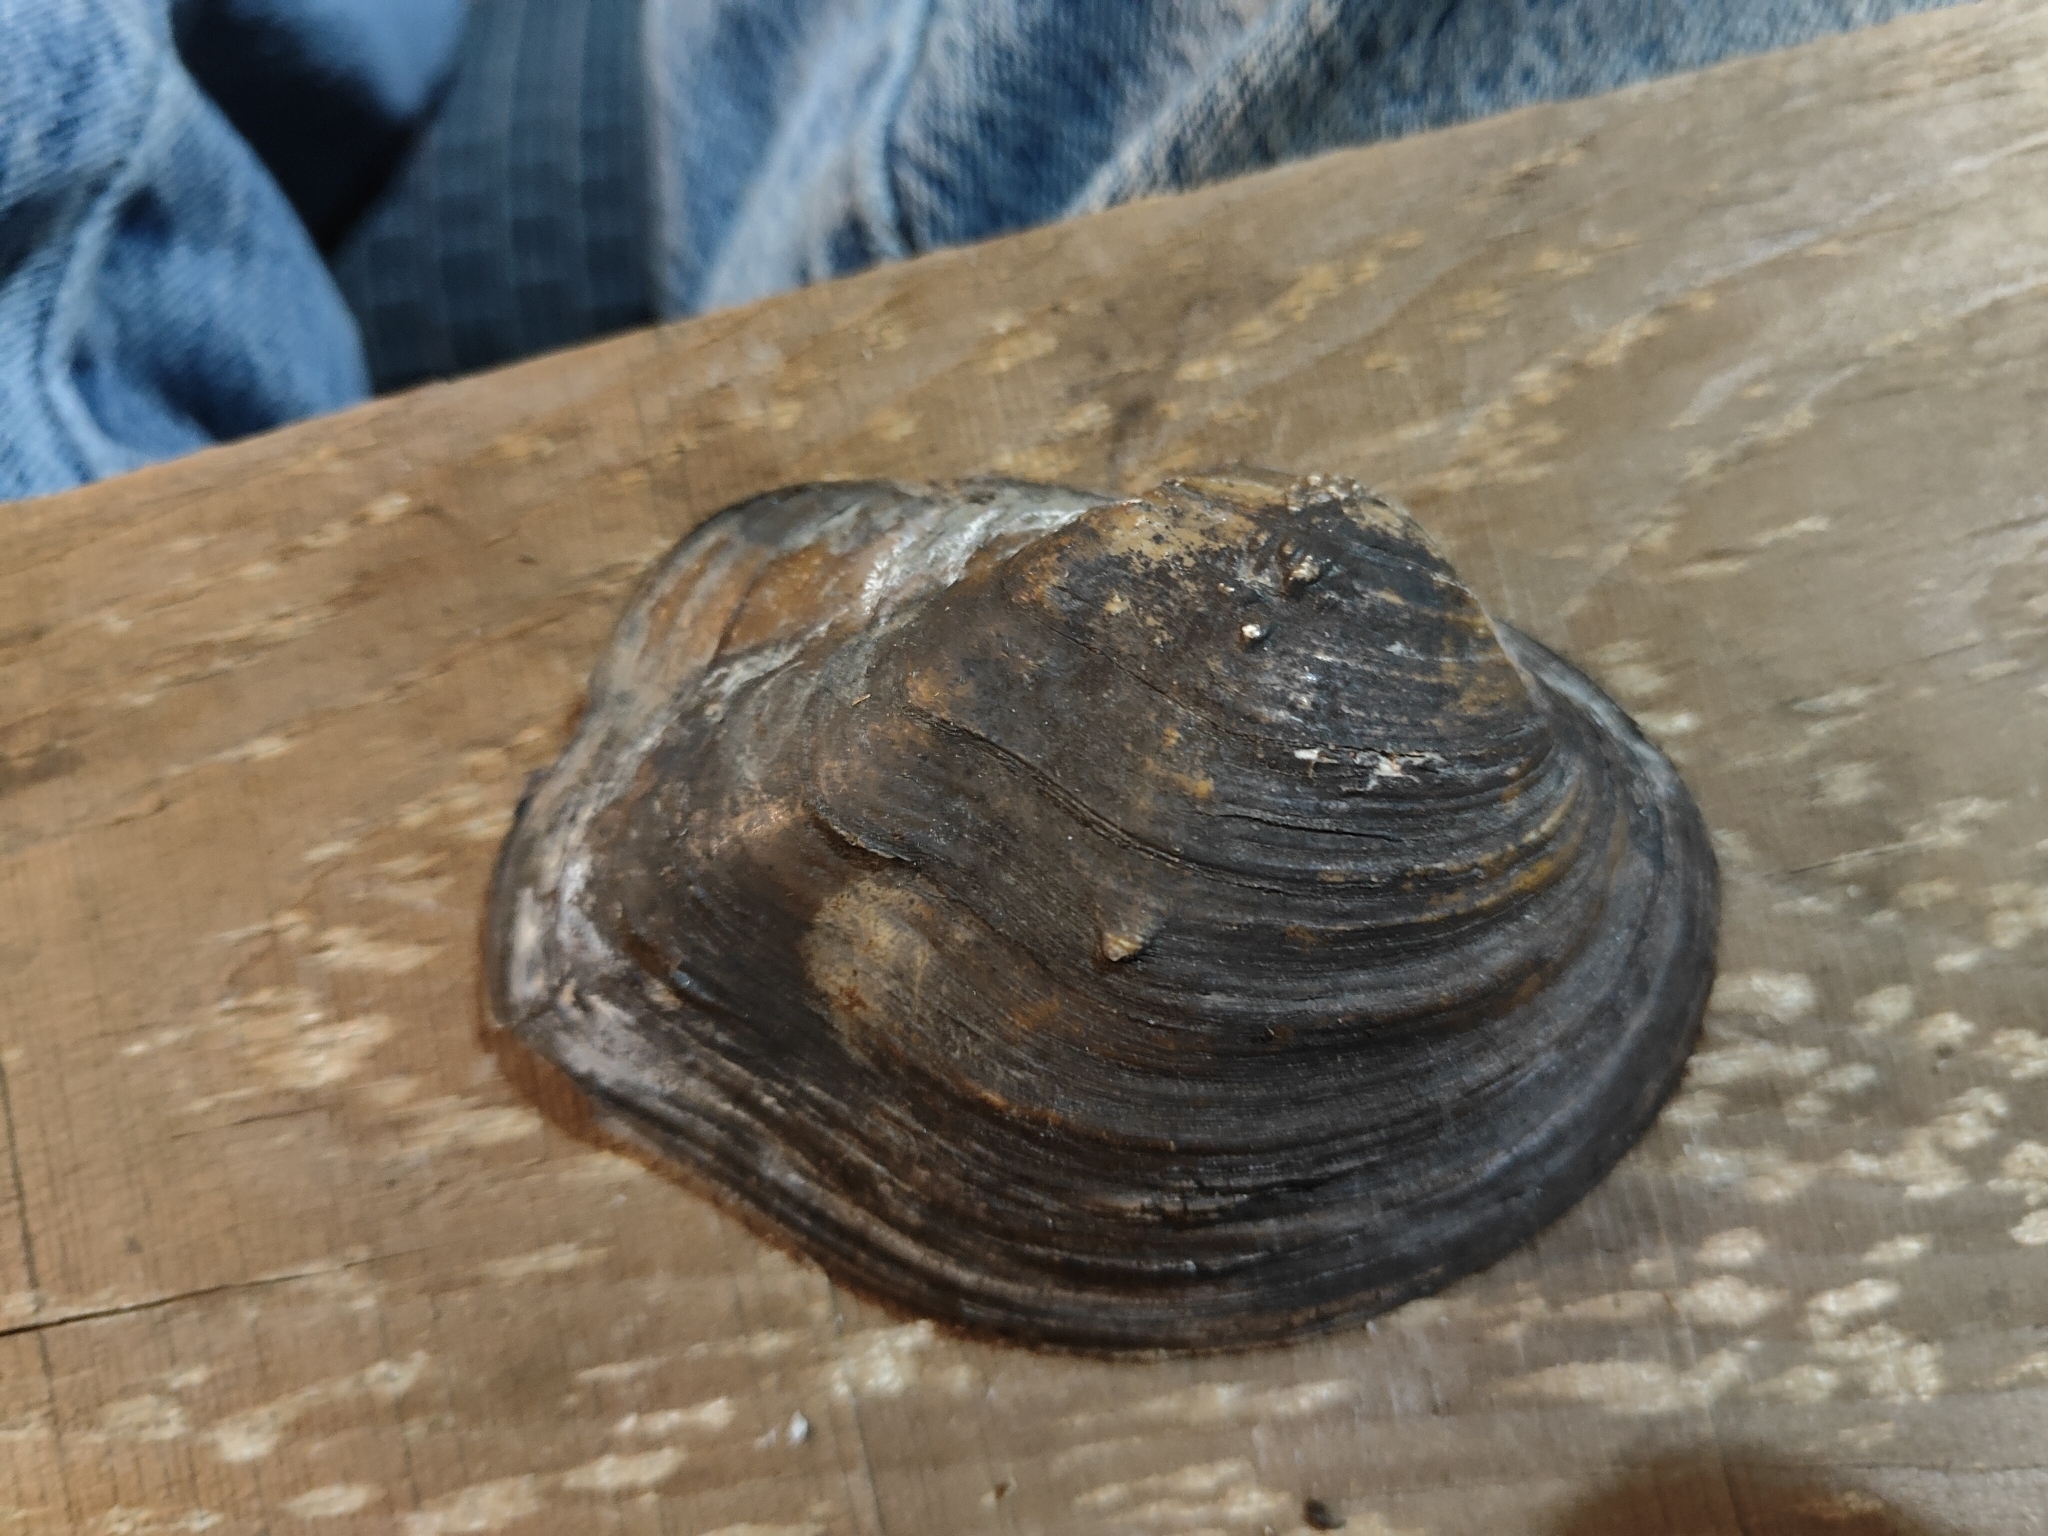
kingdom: Animalia
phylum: Mollusca
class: Bivalvia
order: Unionida
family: Unionidae
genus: Quadrula
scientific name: Quadrula quadrula
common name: Mapleleaf
